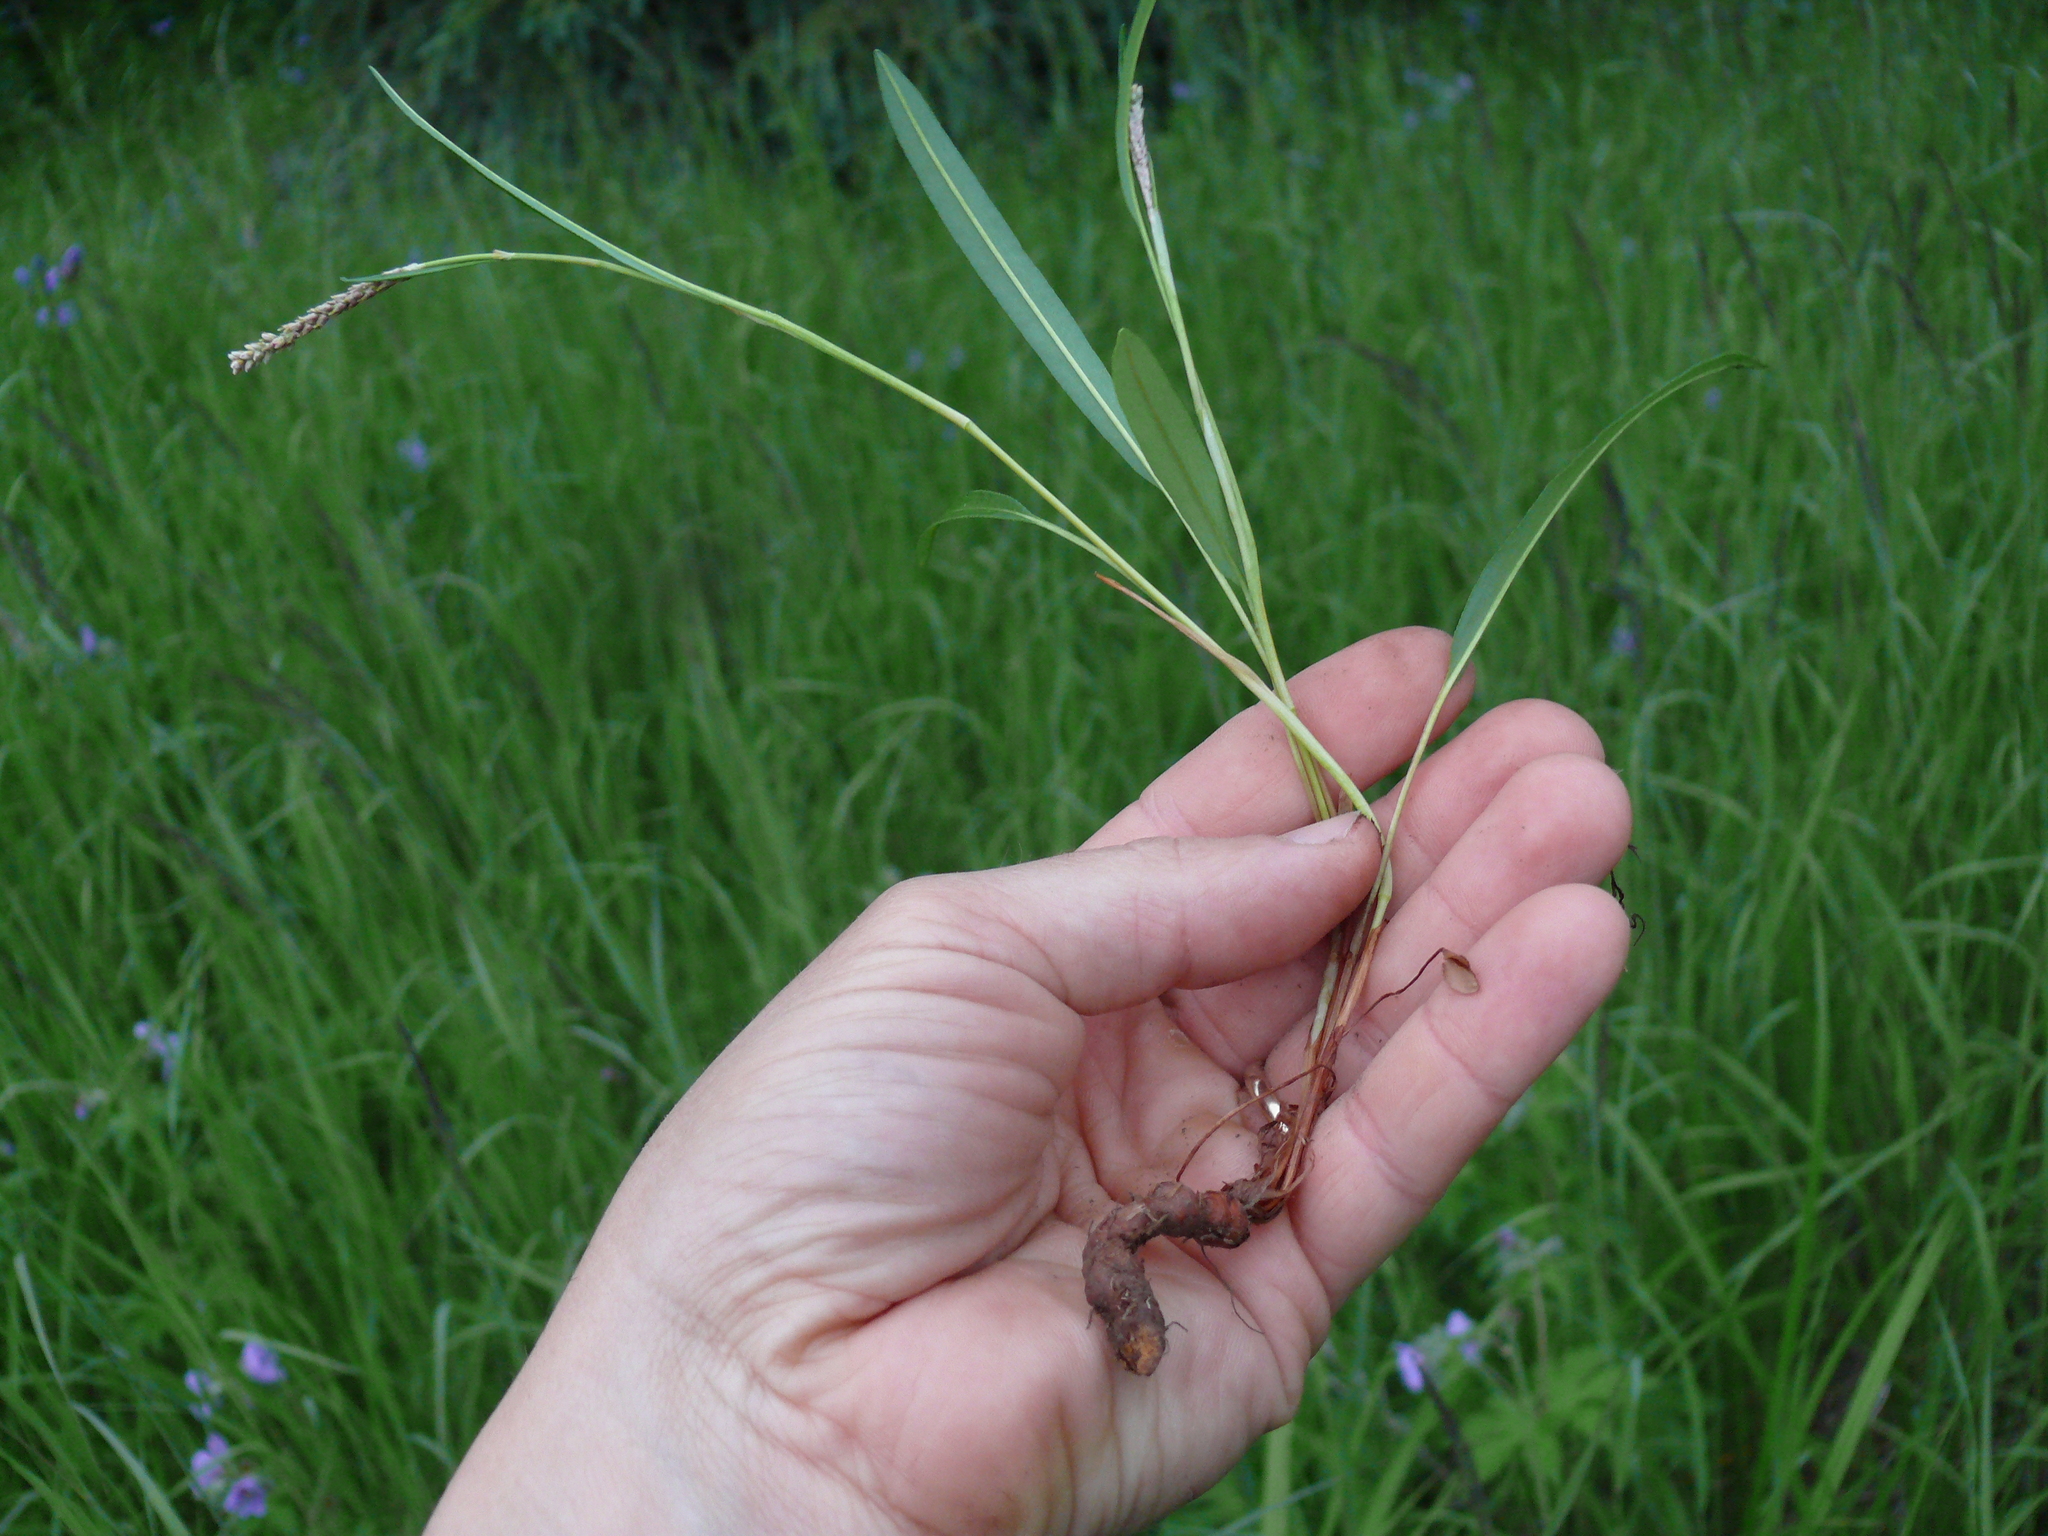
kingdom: Plantae
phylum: Tracheophyta
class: Magnoliopsida
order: Caryophyllales
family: Polygonaceae
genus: Bistorta
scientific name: Bistorta vivipara
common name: Alpine bistort
